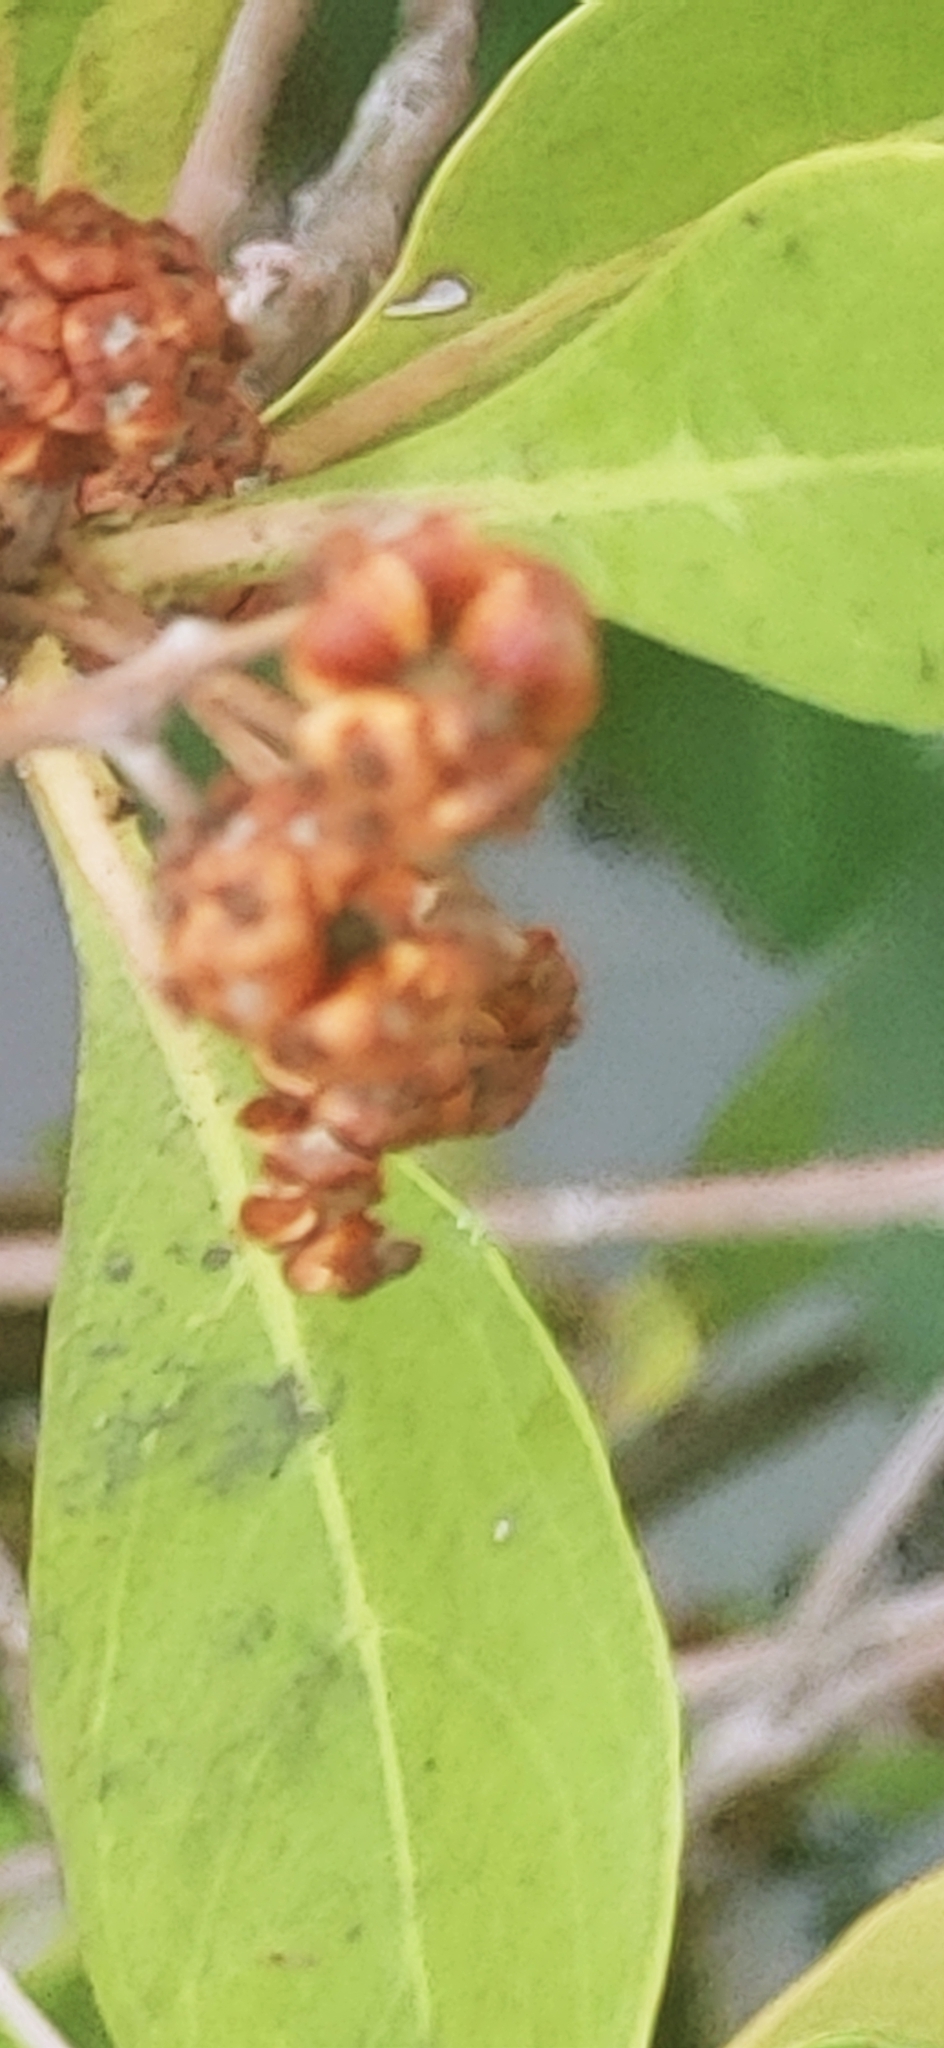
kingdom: Plantae
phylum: Tracheophyta
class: Magnoliopsida
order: Myrtales
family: Combretaceae
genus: Conocarpus
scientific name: Conocarpus erectus
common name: Button mangrove
